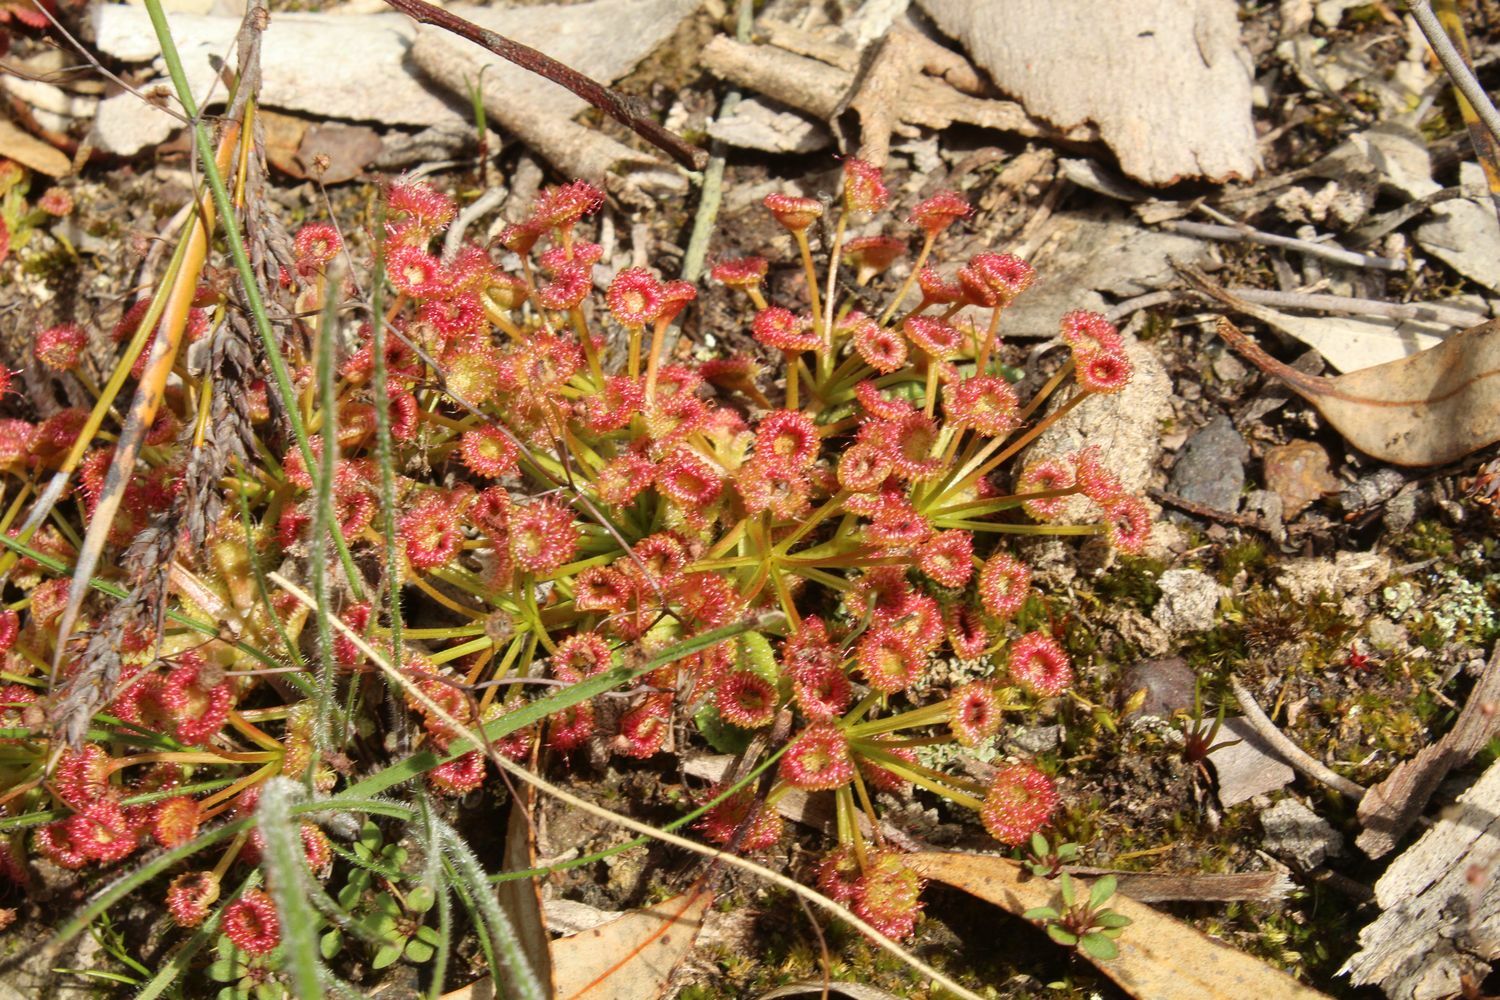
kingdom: Plantae
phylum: Tracheophyta
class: Magnoliopsida
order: Caryophyllales
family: Droseraceae
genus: Drosera
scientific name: Drosera stolonifera
